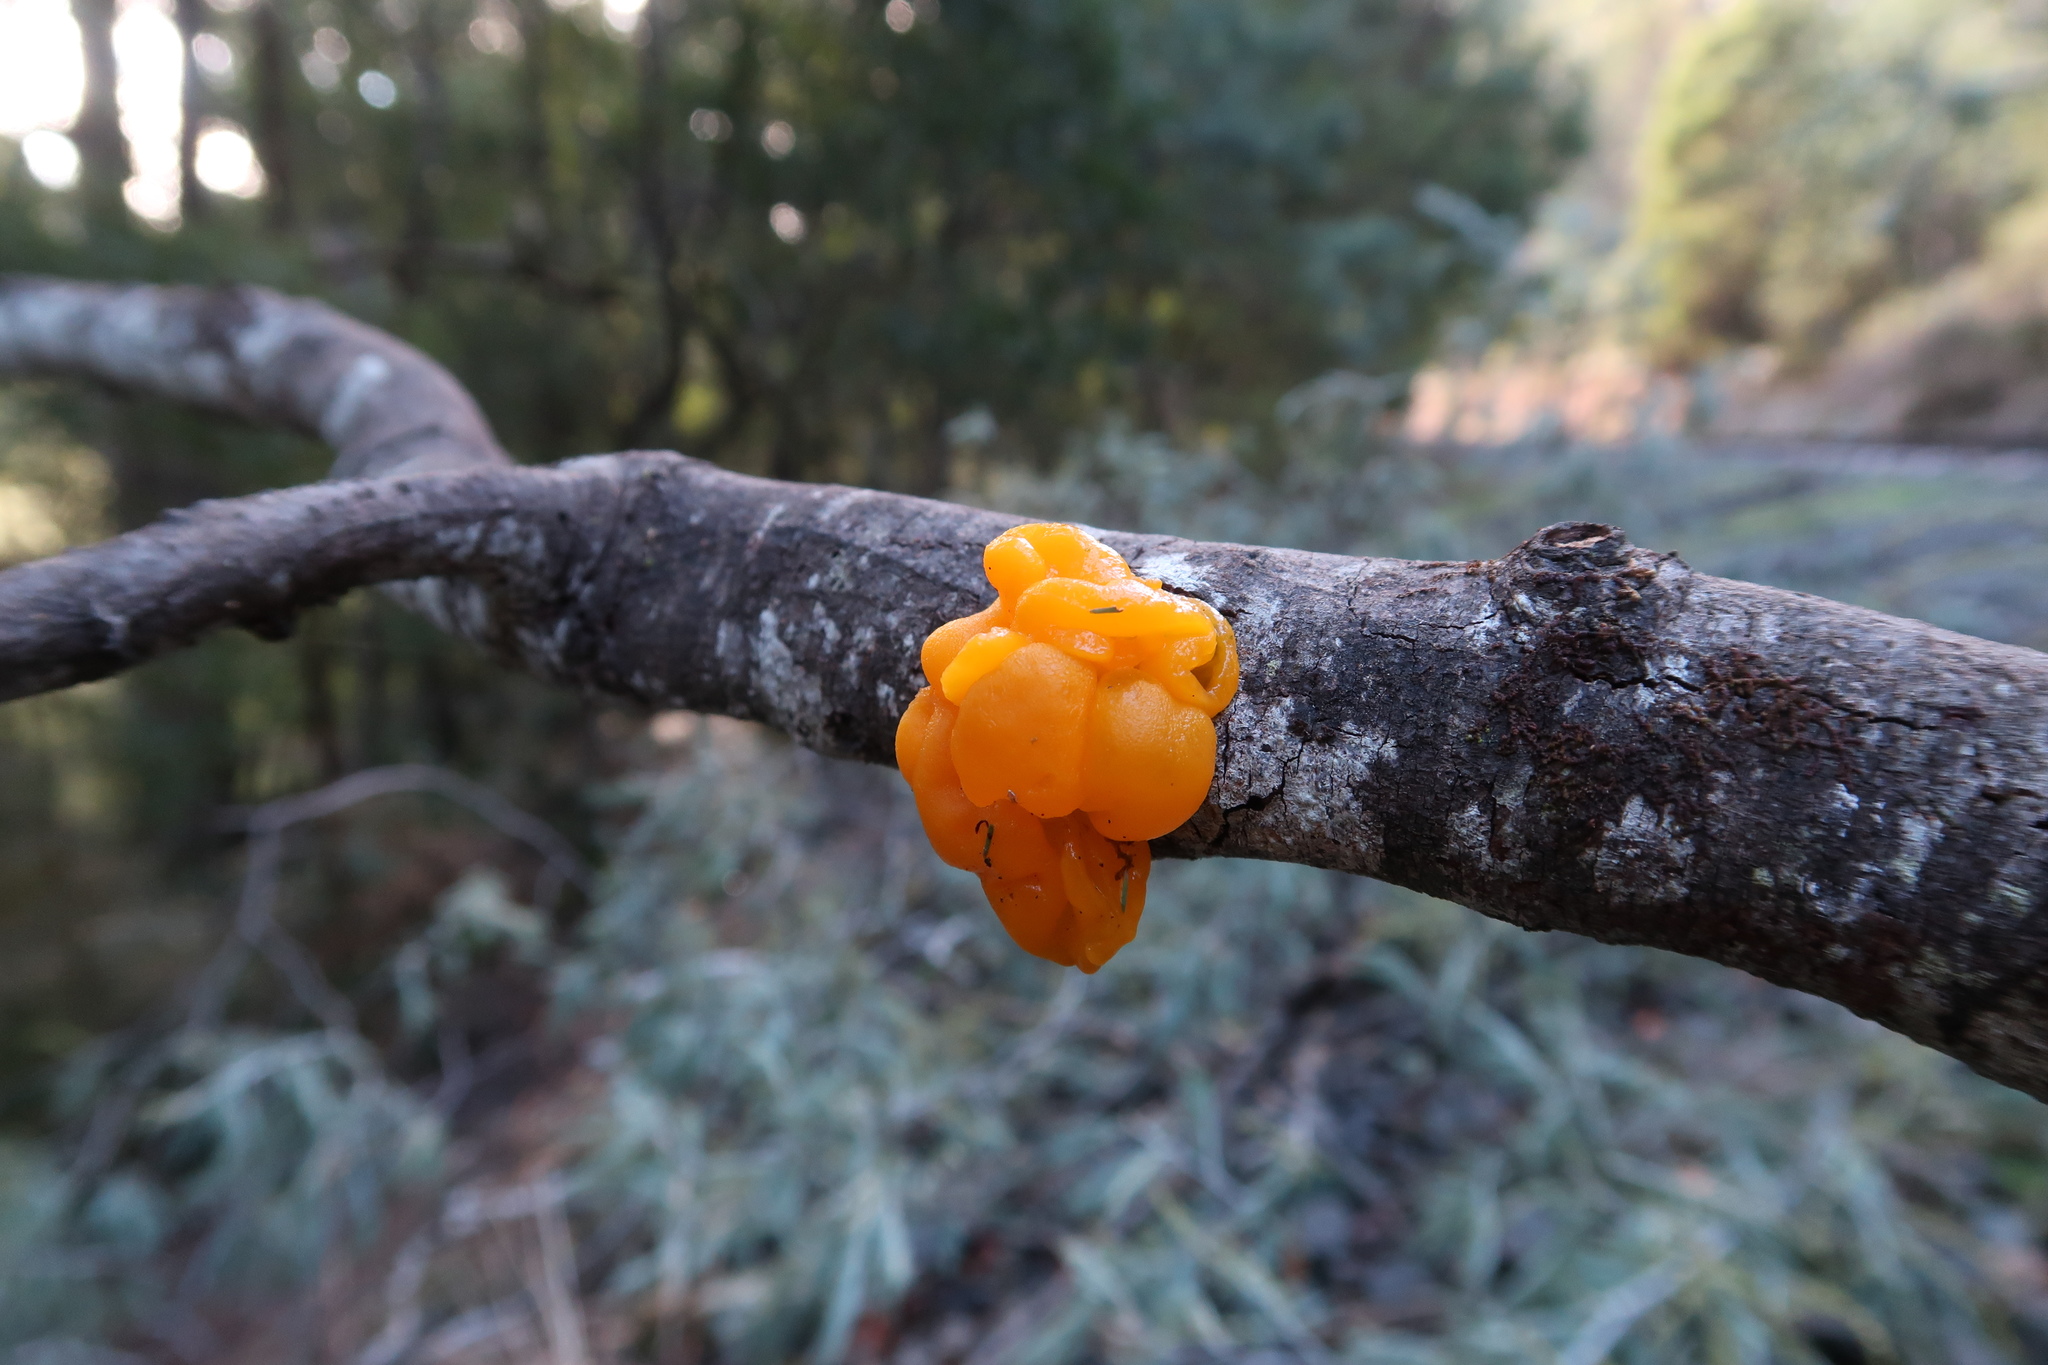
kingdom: Fungi
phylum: Basidiomycota
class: Tremellomycetes
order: Tremellales
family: Tremellaceae
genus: Tremella
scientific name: Tremella mesenterica
